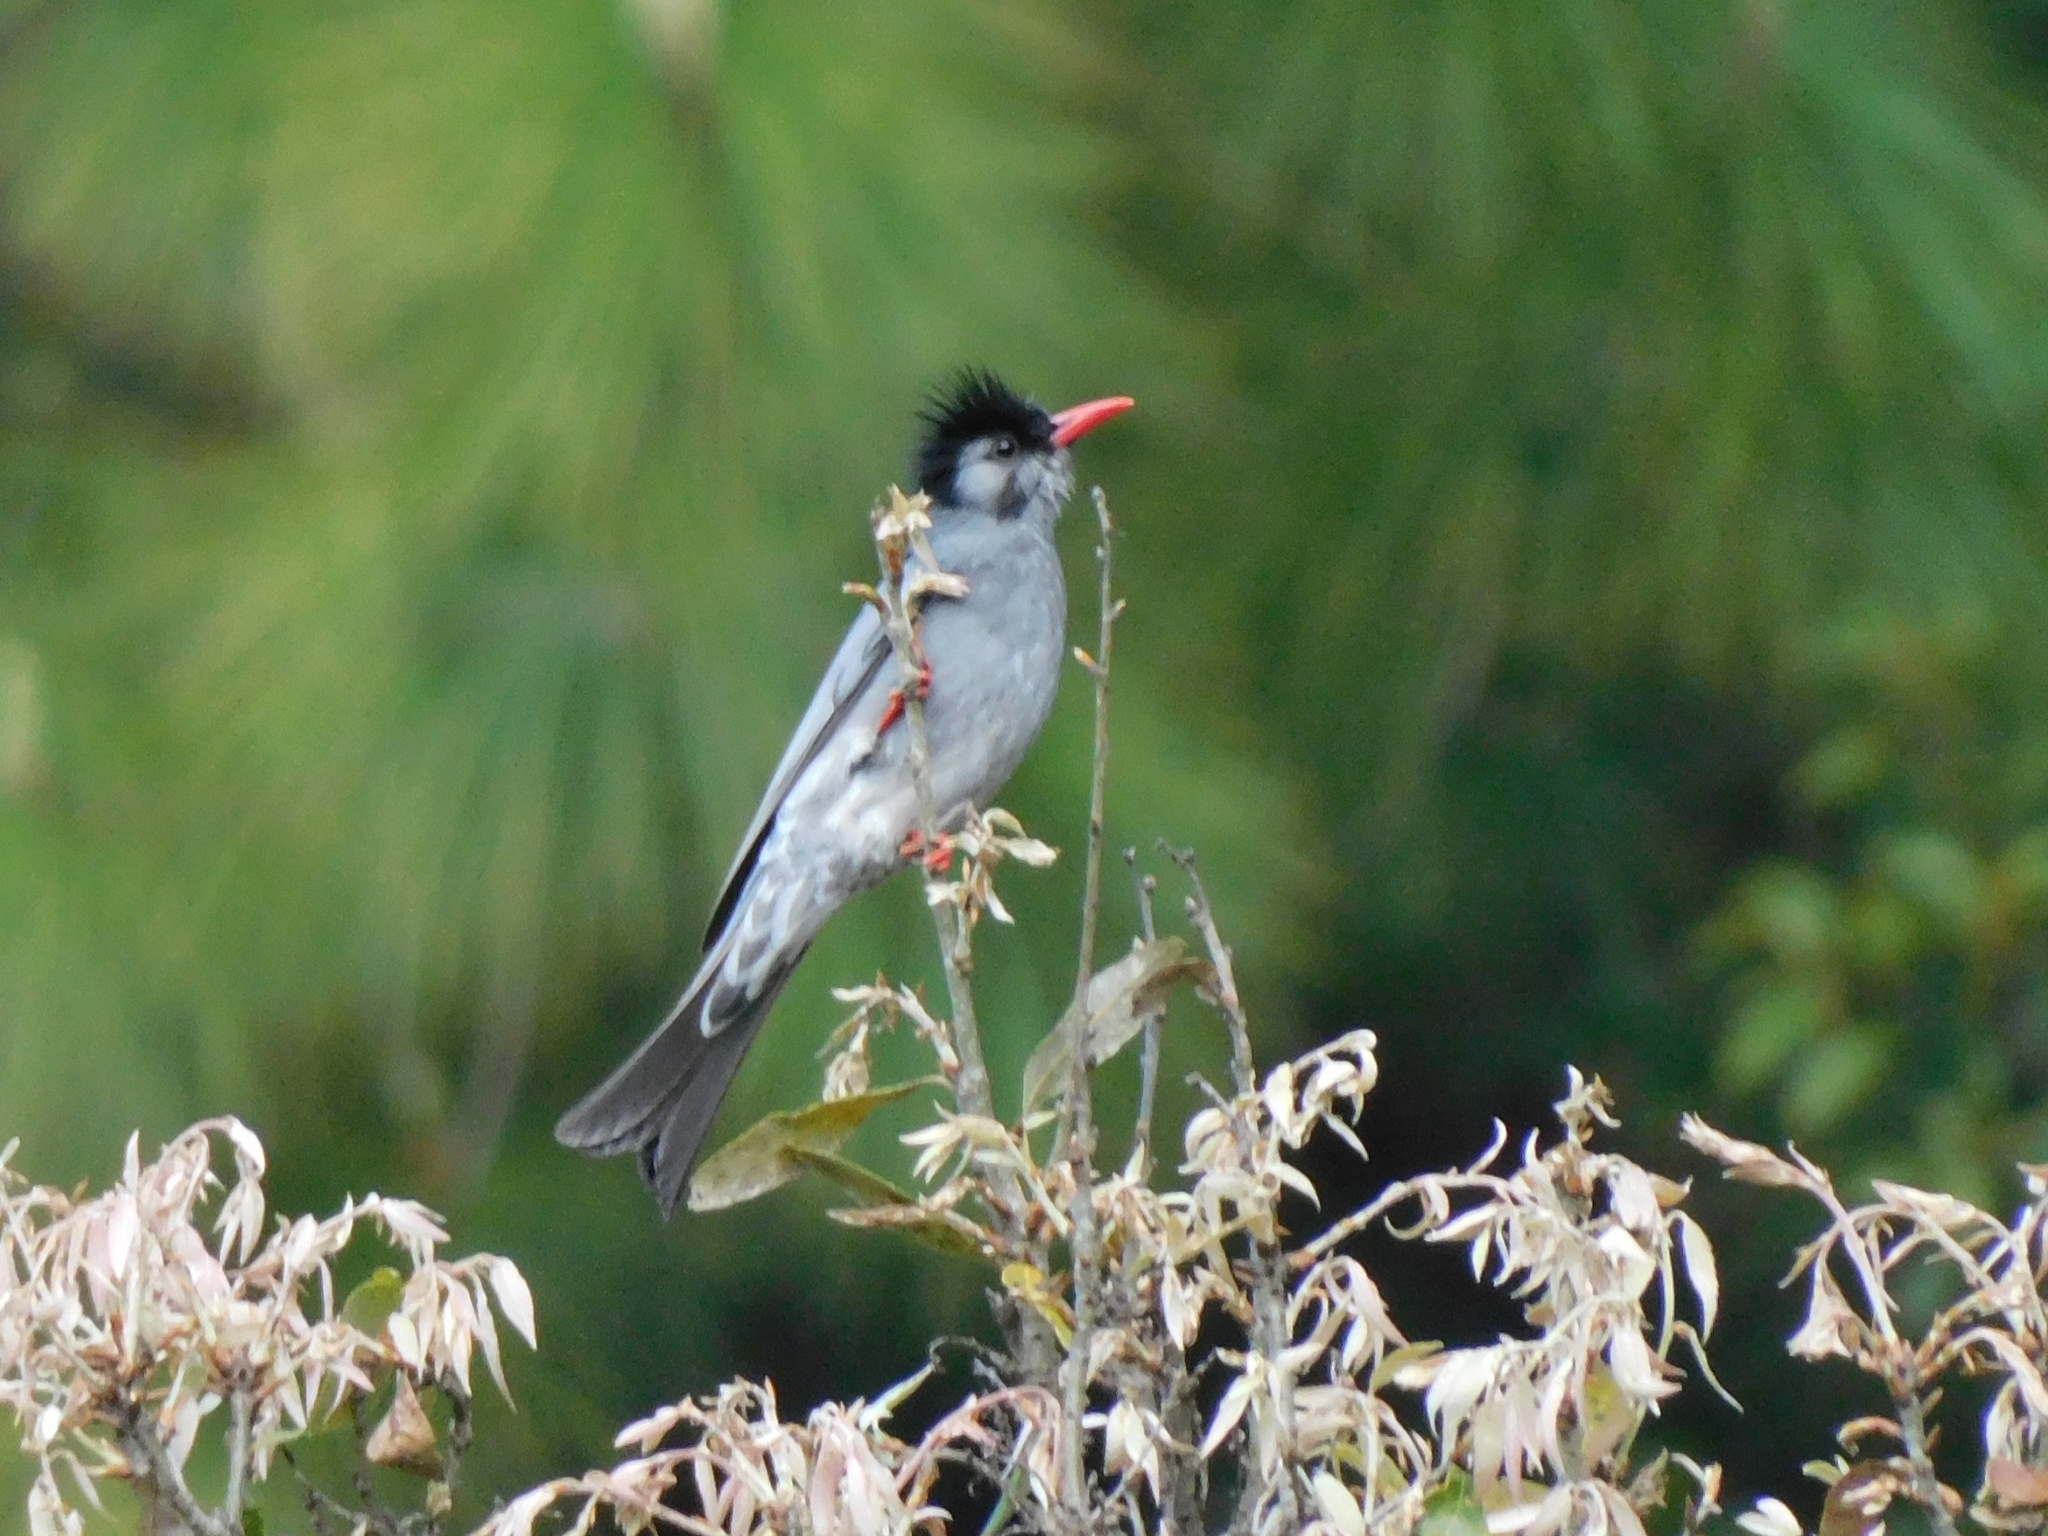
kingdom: Animalia
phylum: Chordata
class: Aves
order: Passeriformes
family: Pycnonotidae
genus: Hypsipetes
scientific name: Hypsipetes leucocephalus
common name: Black bulbul
